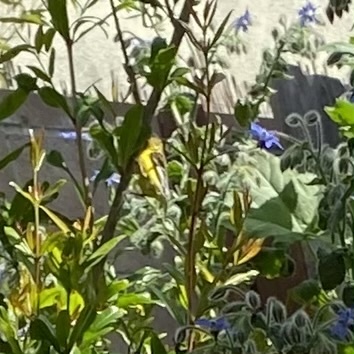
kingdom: Animalia
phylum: Chordata
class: Aves
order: Passeriformes
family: Fringillidae
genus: Spinus
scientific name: Spinus psaltria
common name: Lesser goldfinch
